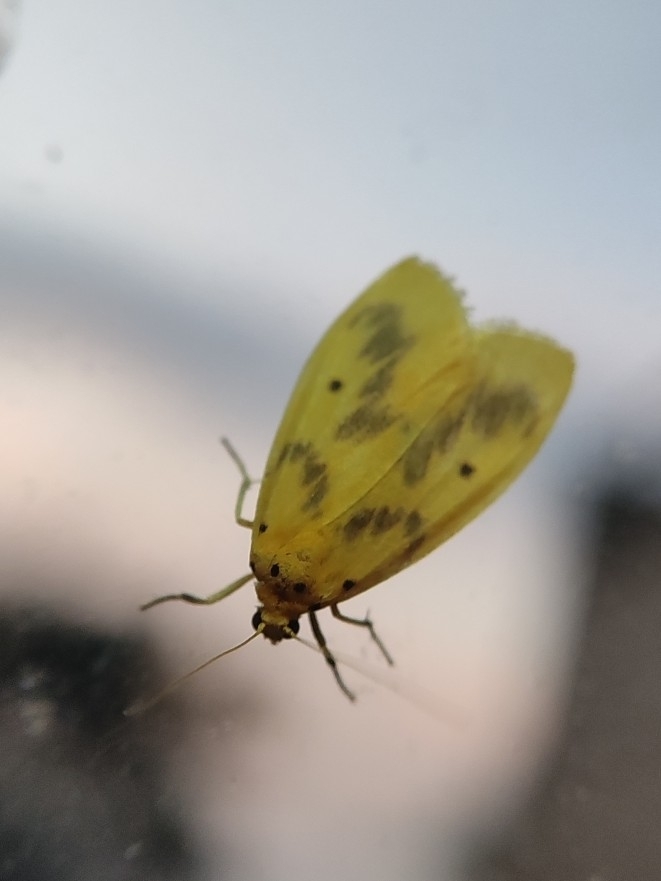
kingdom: Animalia
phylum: Arthropoda
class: Insecta
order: Lepidoptera
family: Erebidae
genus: Miltochrista
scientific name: Miltochrista undulata
